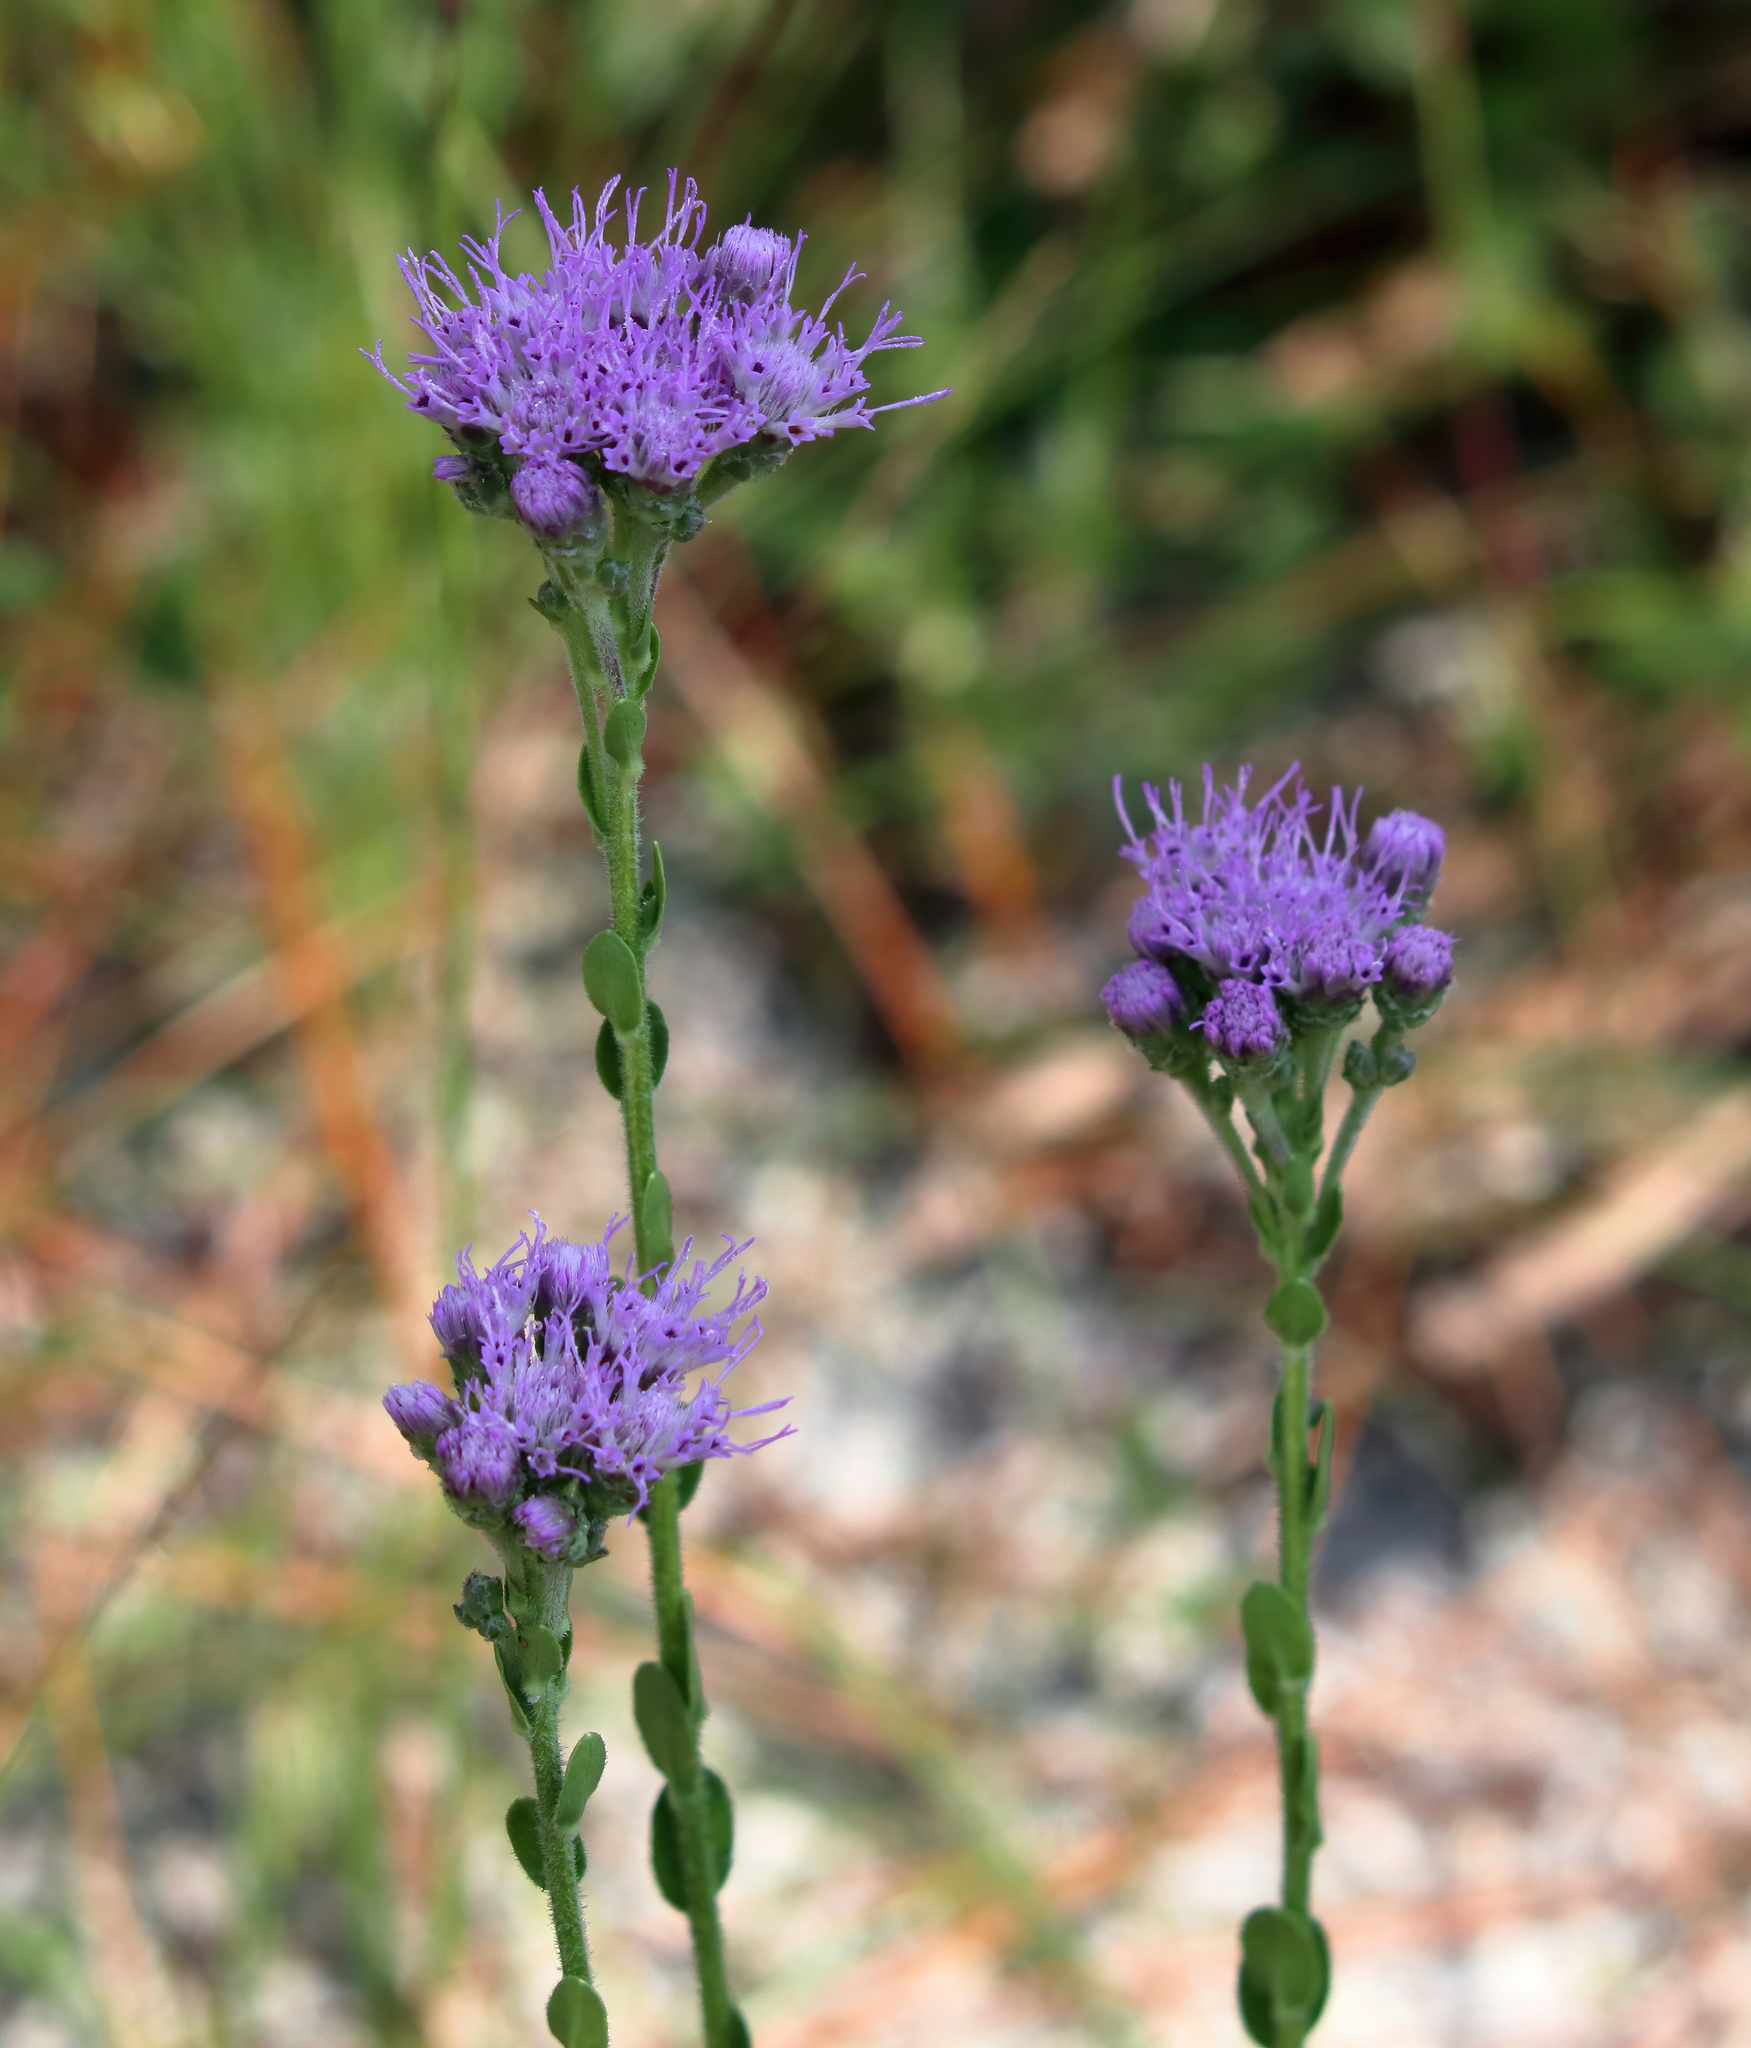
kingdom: Plantae
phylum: Tracheophyta
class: Magnoliopsida
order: Asterales
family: Asteraceae
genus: Carphephorus
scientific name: Carphephorus corymbosus
